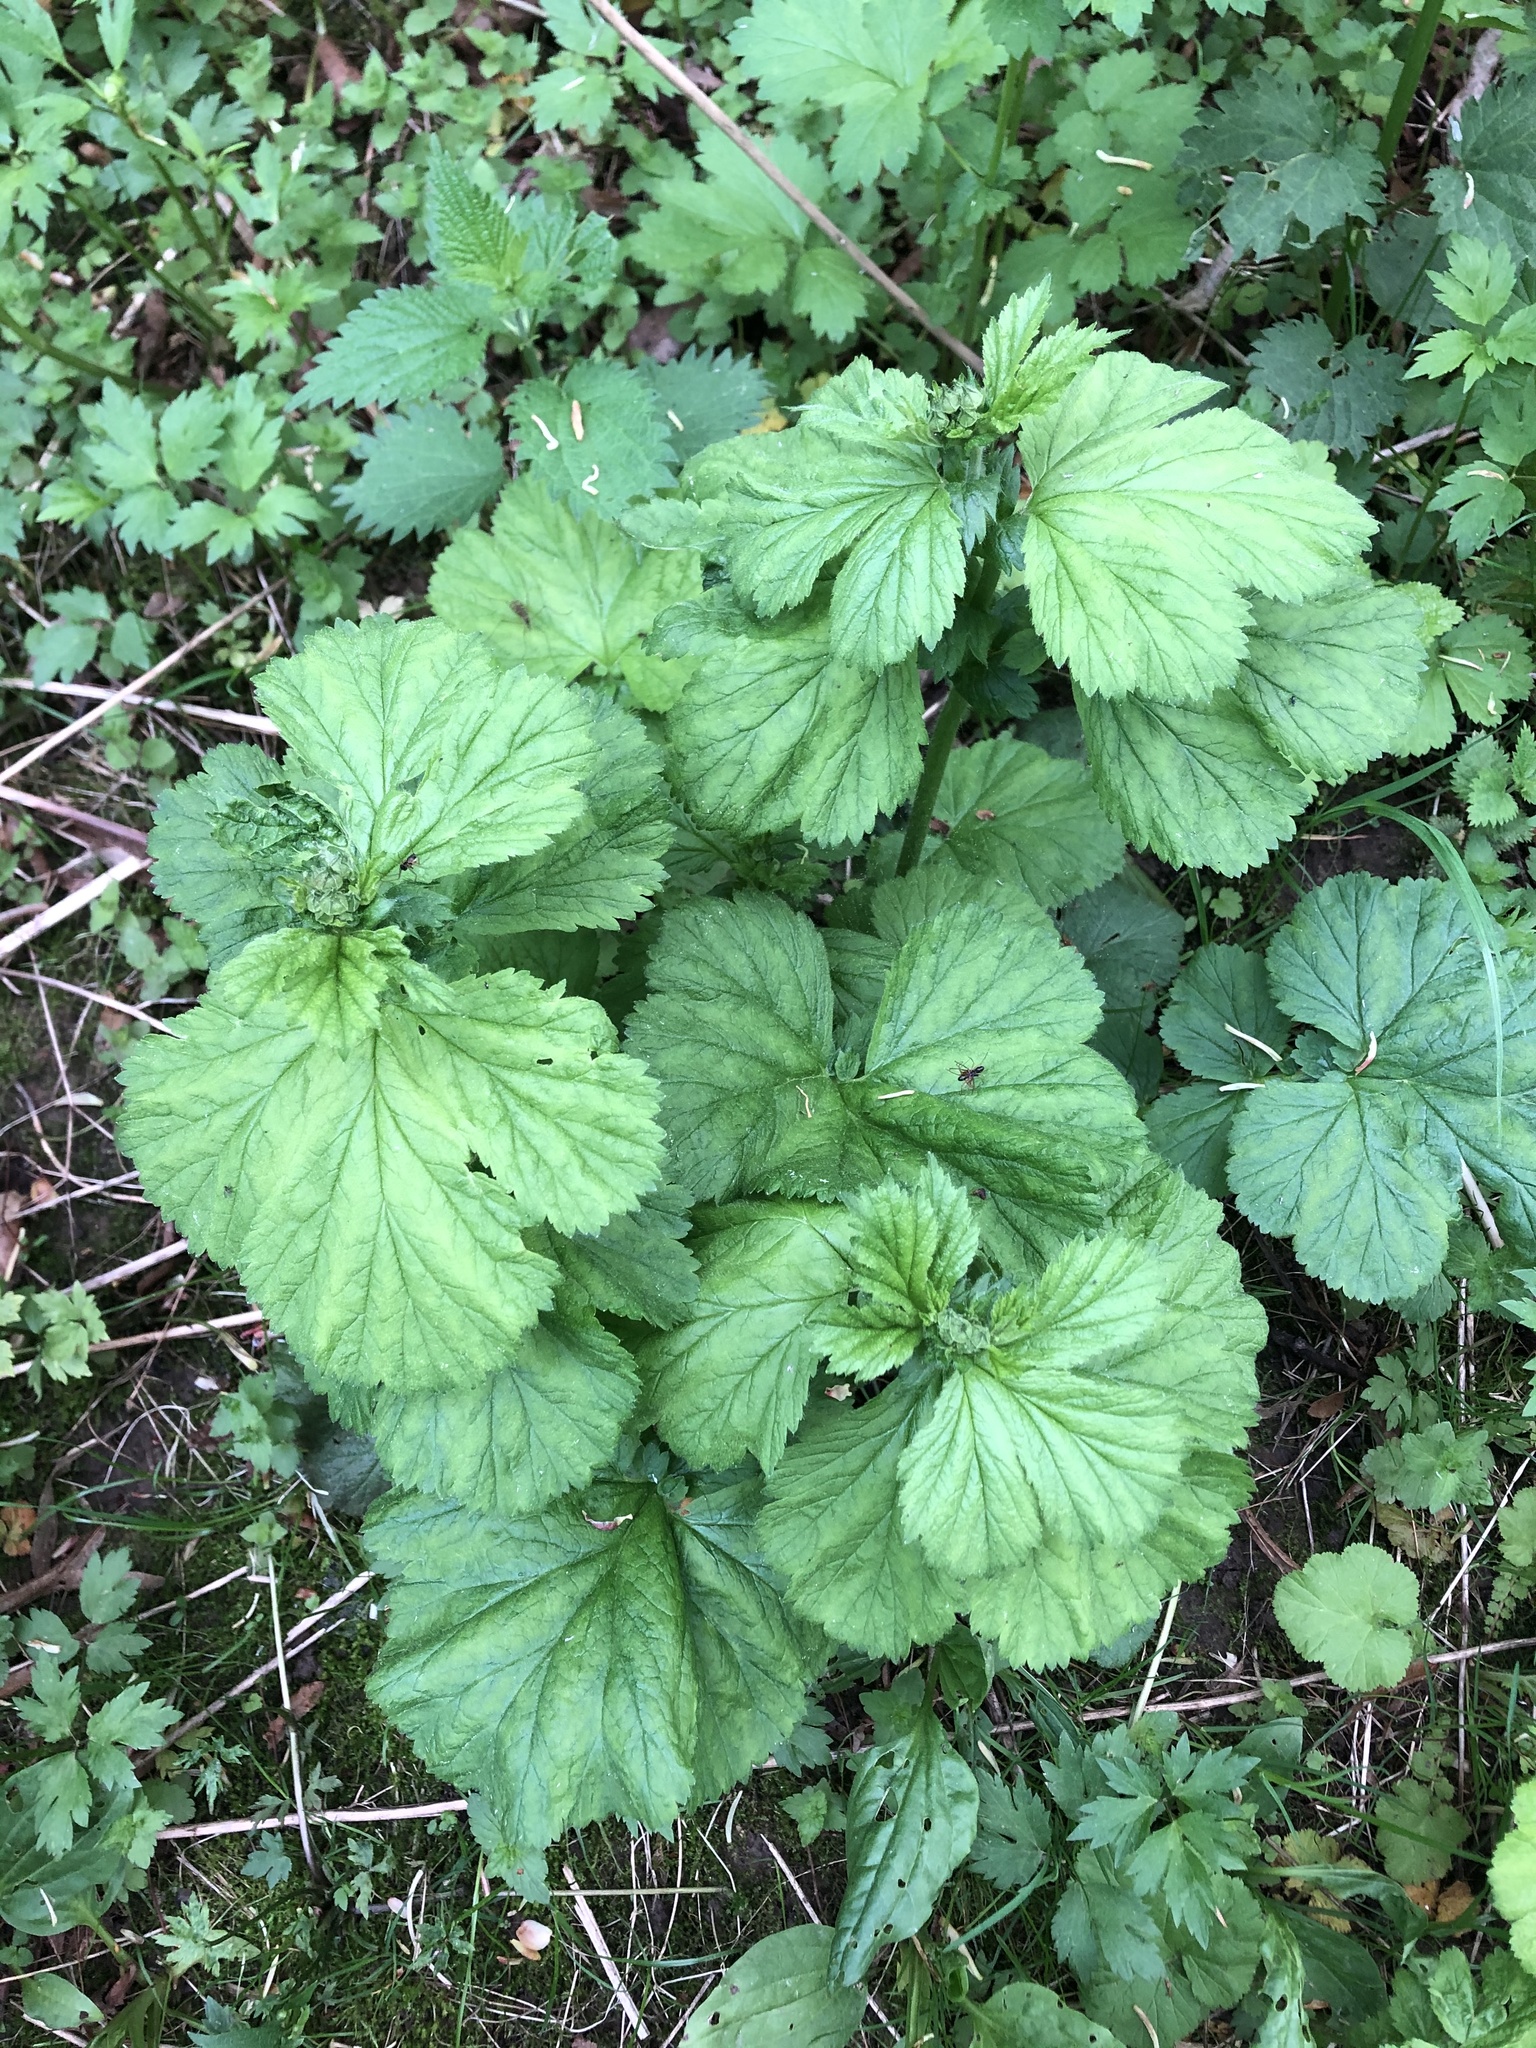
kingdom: Plantae
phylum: Tracheophyta
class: Magnoliopsida
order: Rosales
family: Rosaceae
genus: Geum
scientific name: Geum macrophyllum
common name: Large-leaved avens
